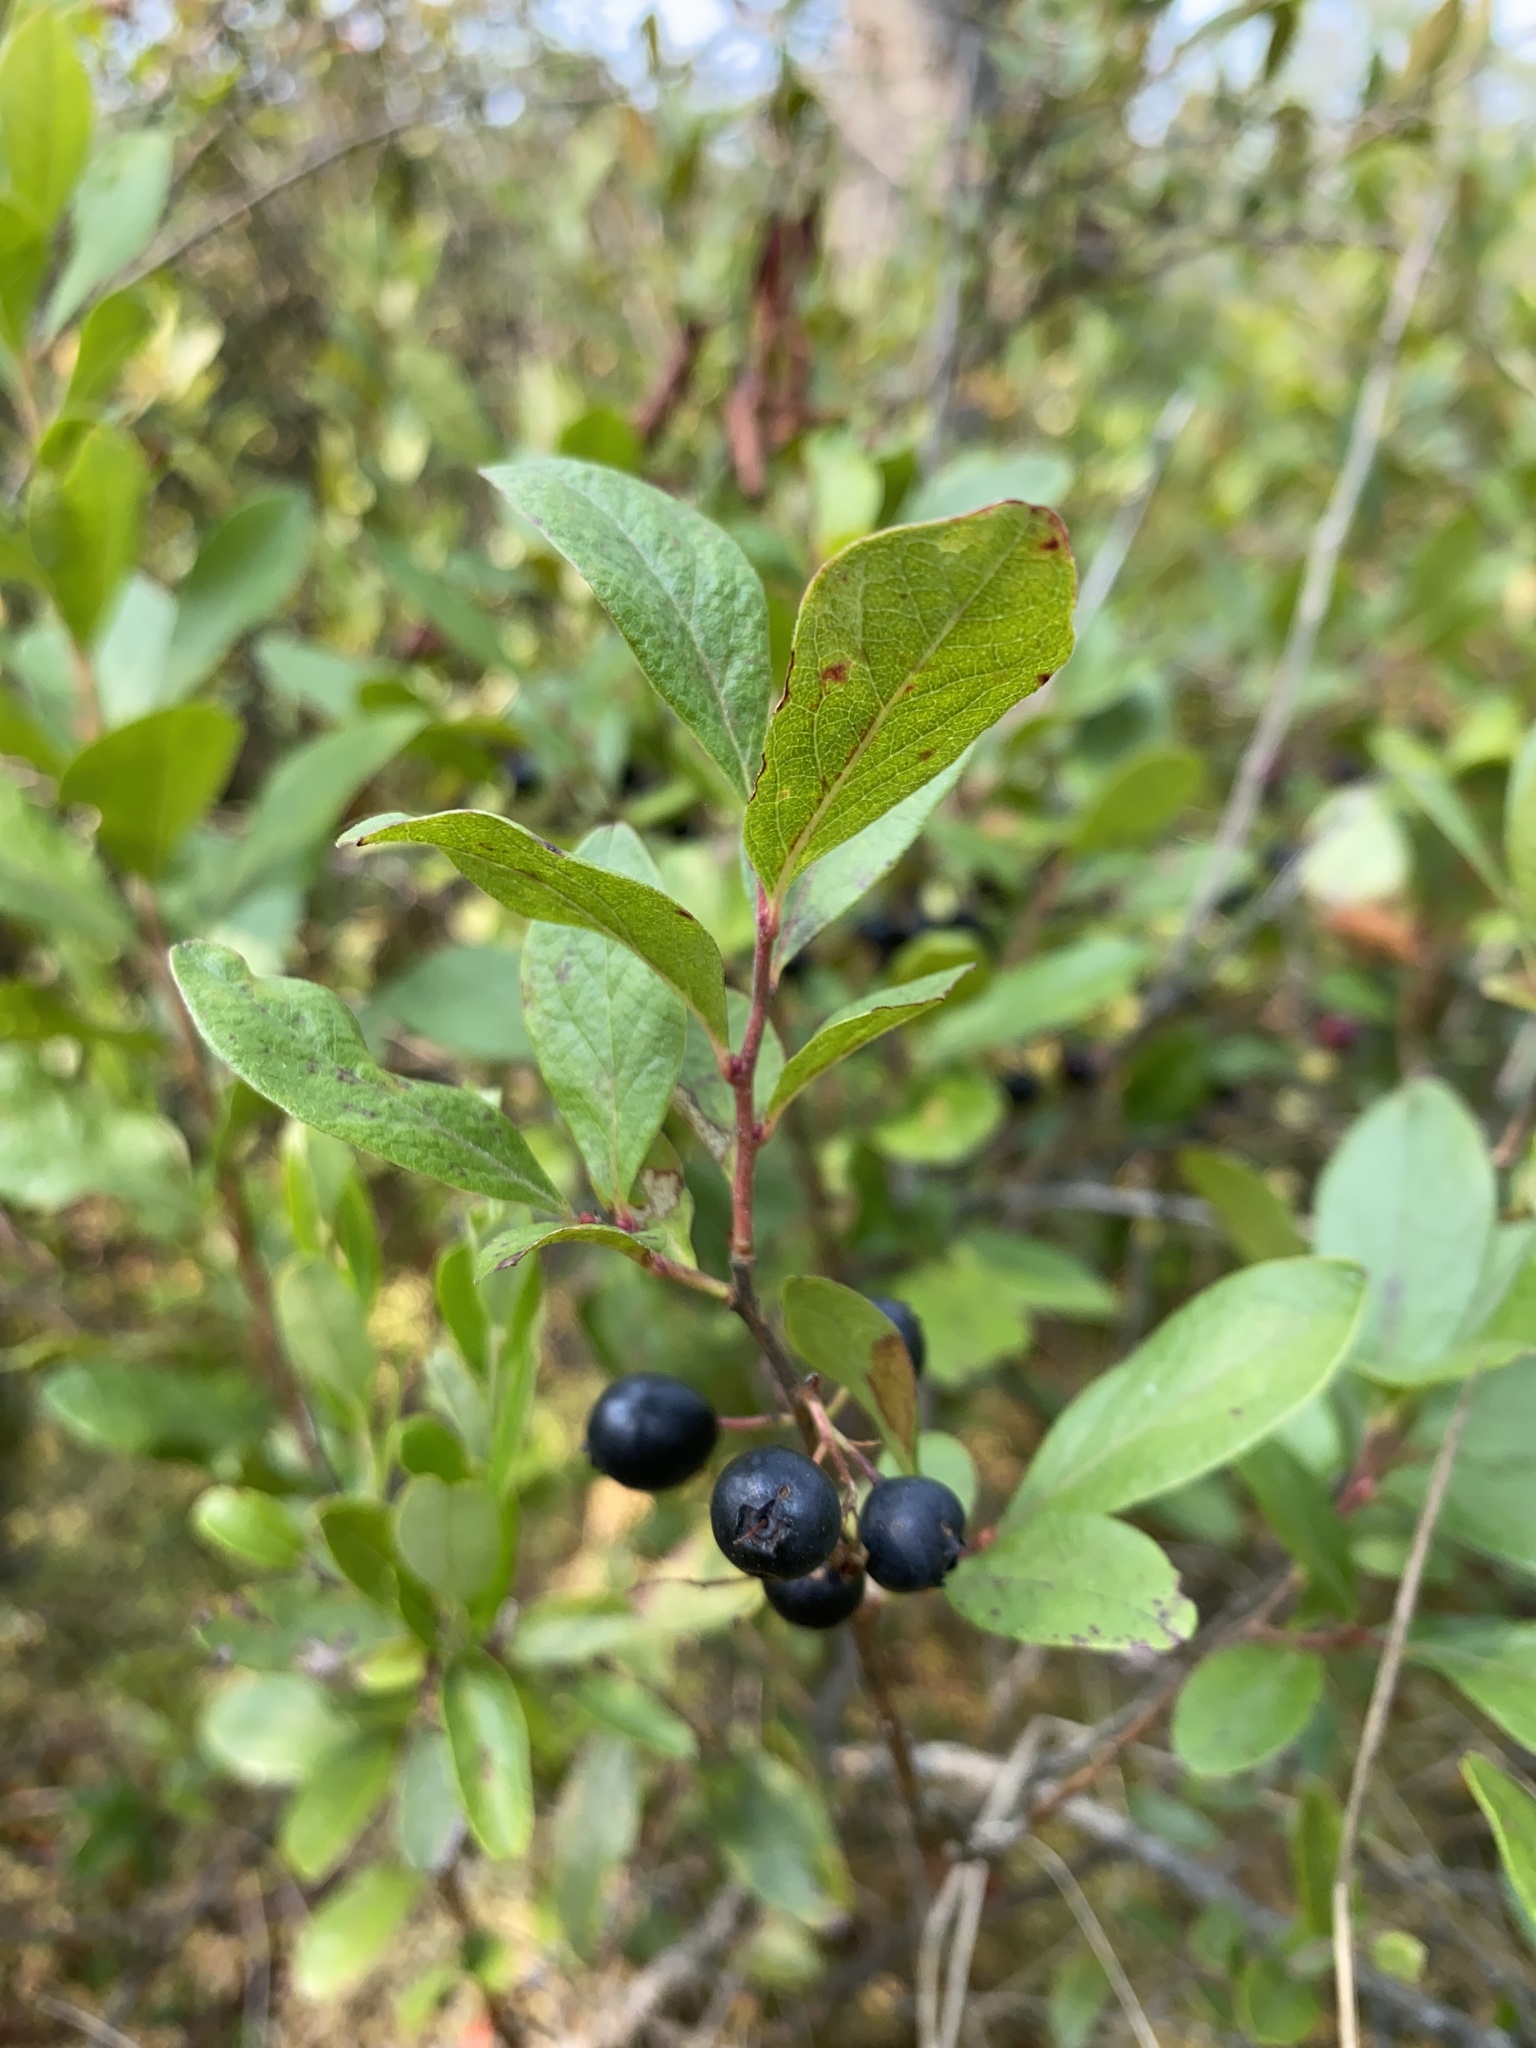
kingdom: Plantae
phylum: Tracheophyta
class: Magnoliopsida
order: Ericales
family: Ericaceae
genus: Gaylussacia
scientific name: Gaylussacia baccata
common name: Black huckleberry
